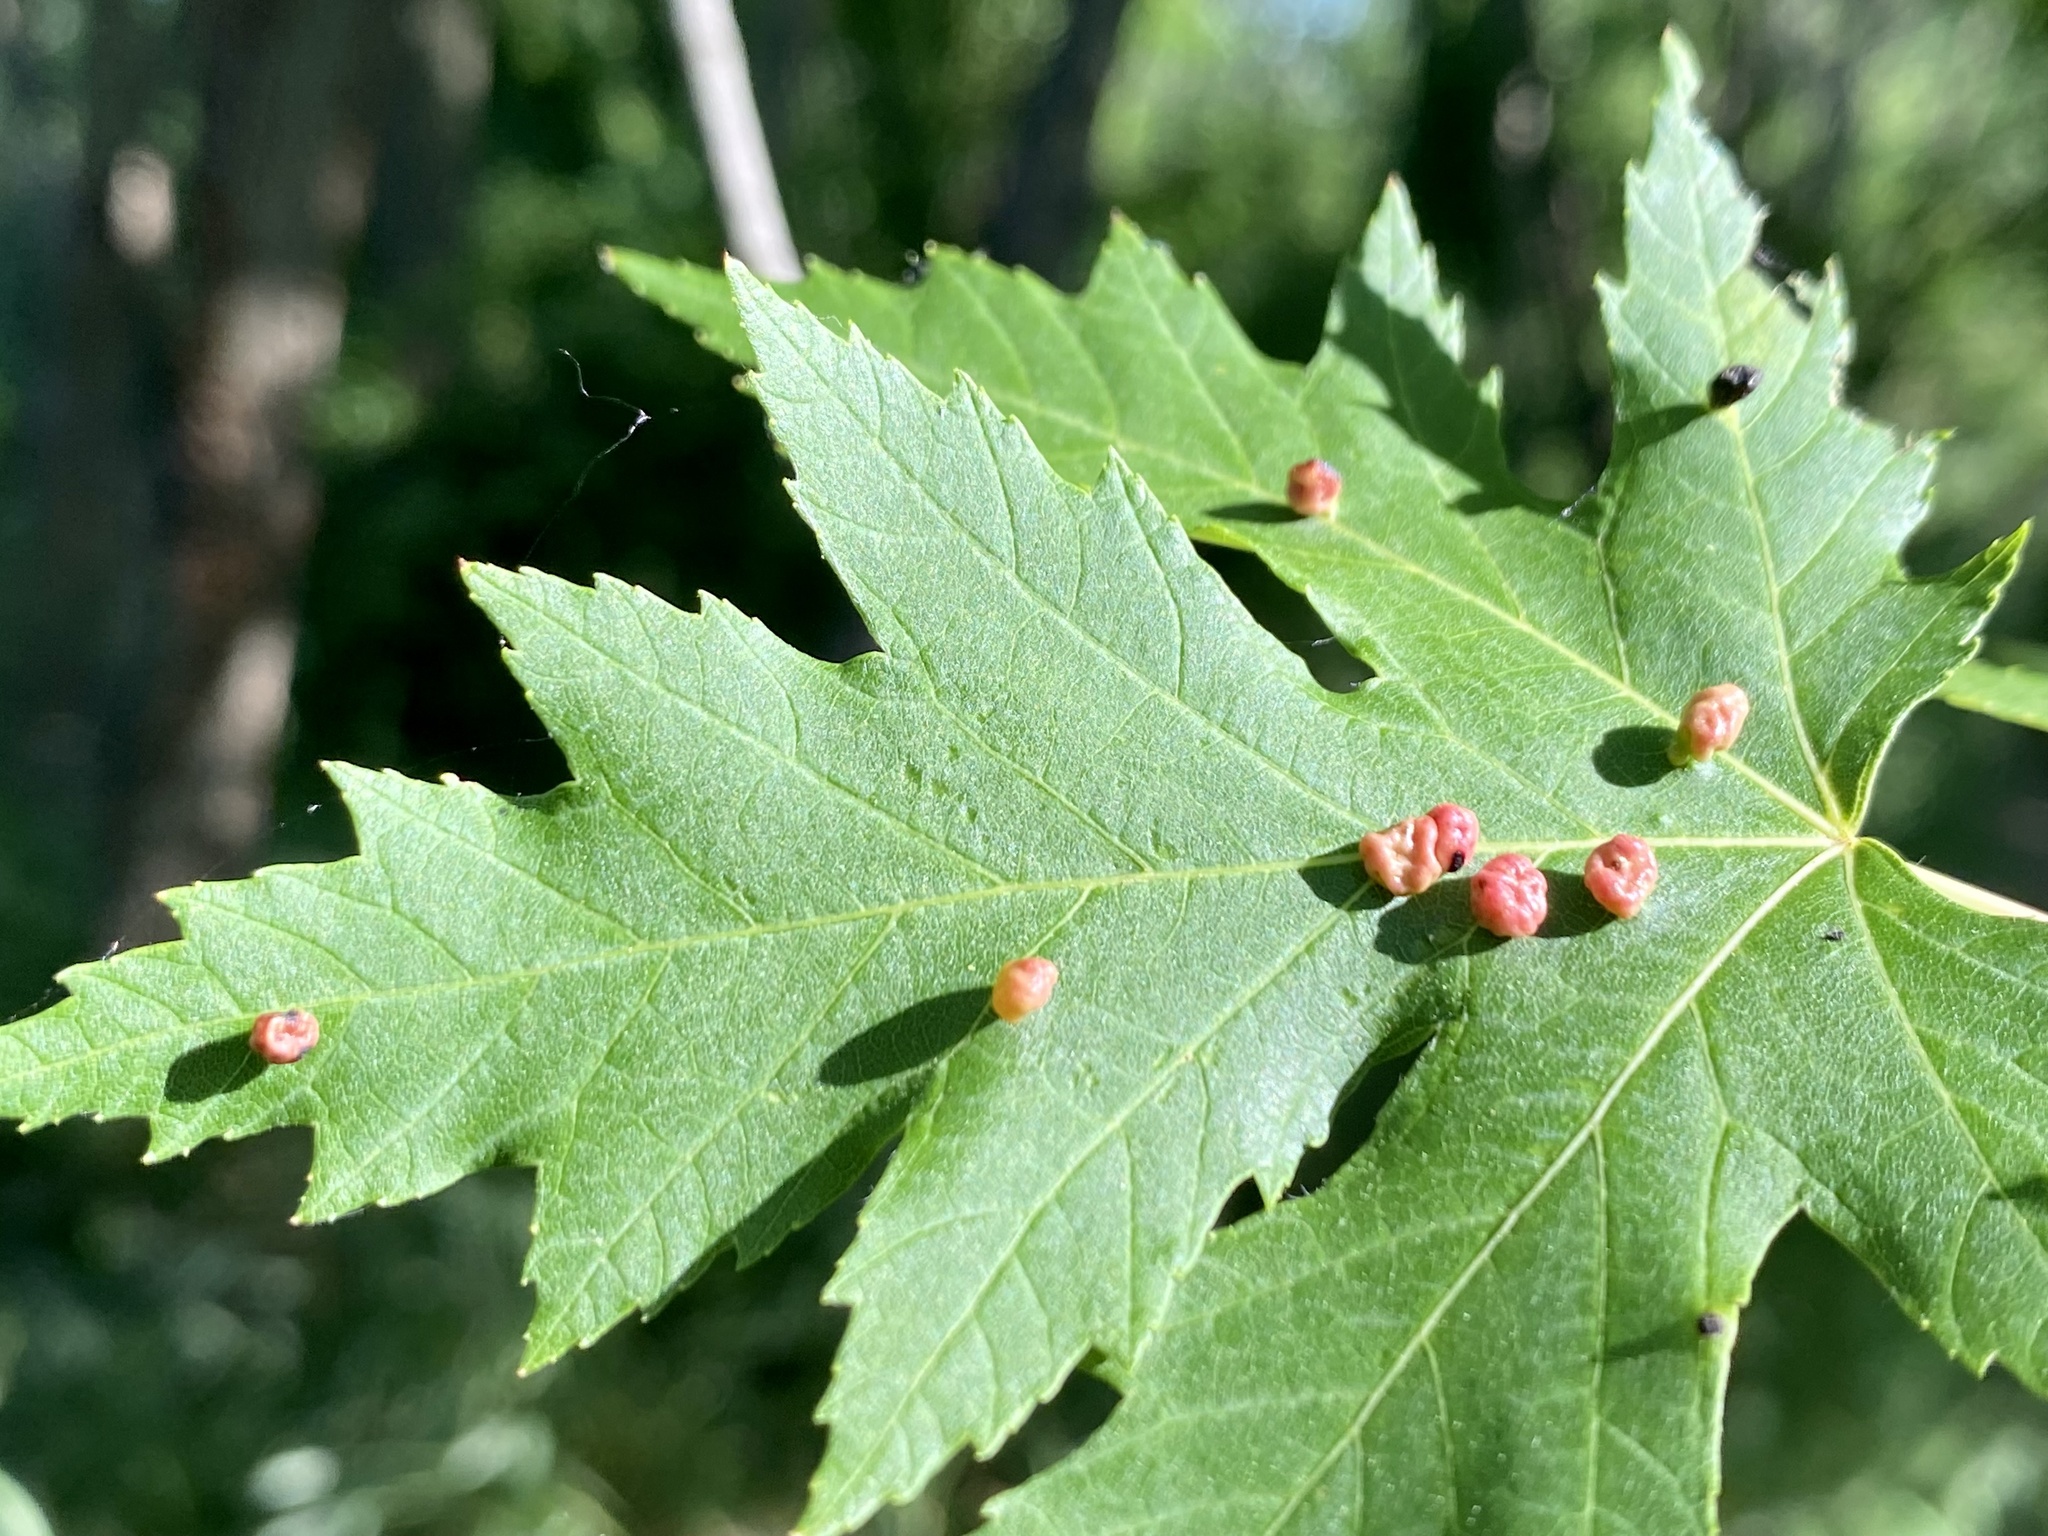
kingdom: Animalia
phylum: Arthropoda
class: Arachnida
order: Trombidiformes
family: Eriophyidae
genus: Vasates
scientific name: Vasates quadripedes
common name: Maple bladder gall mite
